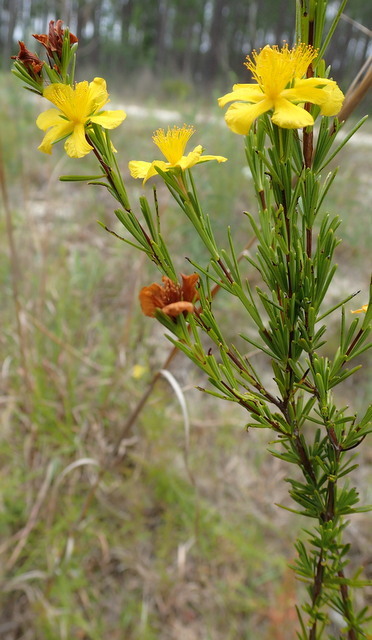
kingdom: Plantae
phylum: Tracheophyta
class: Magnoliopsida
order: Malpighiales
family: Hypericaceae
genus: Hypericum
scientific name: Hypericum nitidum
